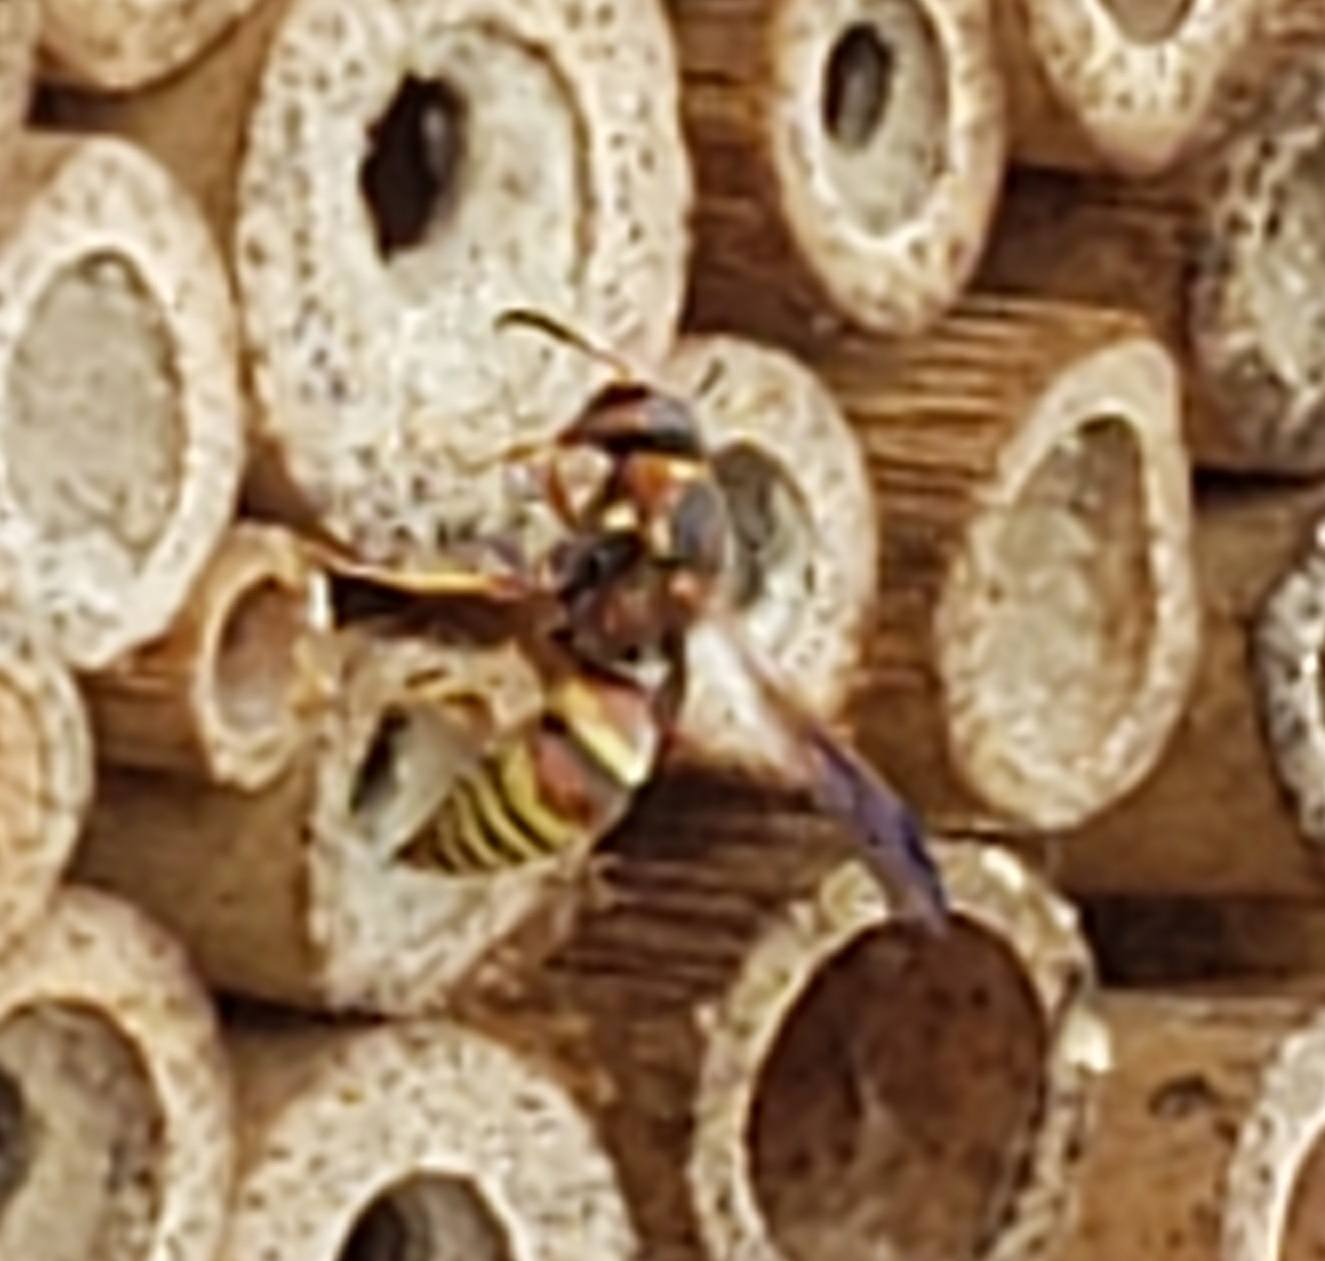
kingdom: Animalia
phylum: Arthropoda
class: Insecta
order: Hymenoptera
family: Eumenidae
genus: Euodynerus
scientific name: Euodynerus pratensis
